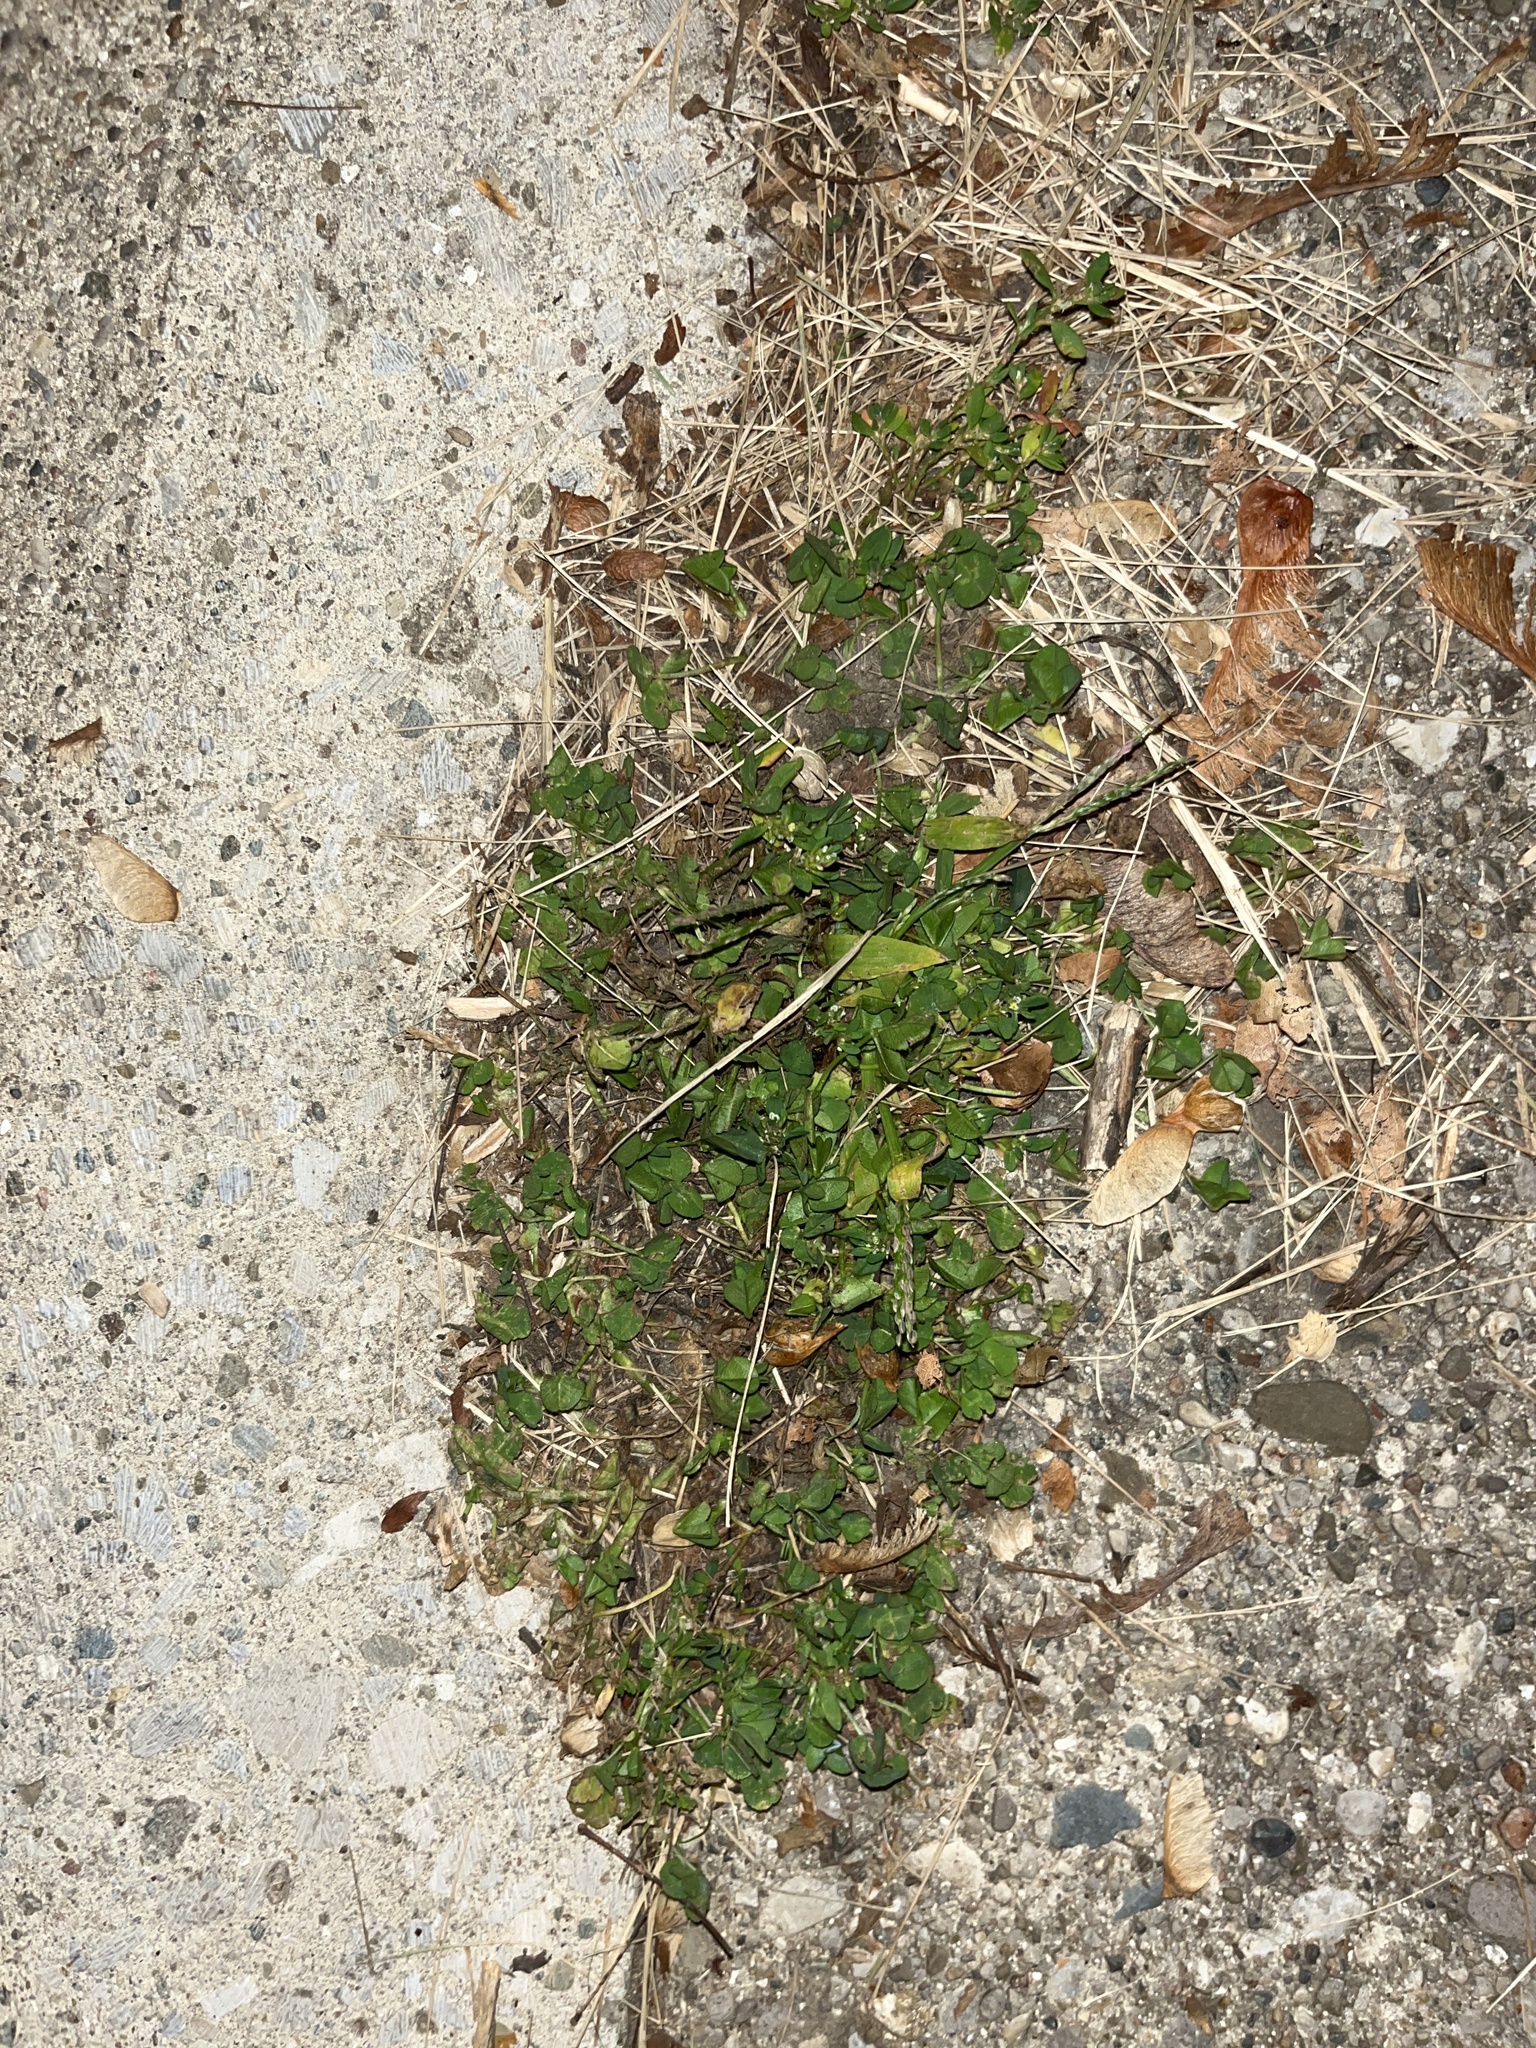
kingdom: Plantae
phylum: Tracheophyta
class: Magnoliopsida
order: Fabales
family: Fabaceae
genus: Trifolium
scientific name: Trifolium repens
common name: White clover
